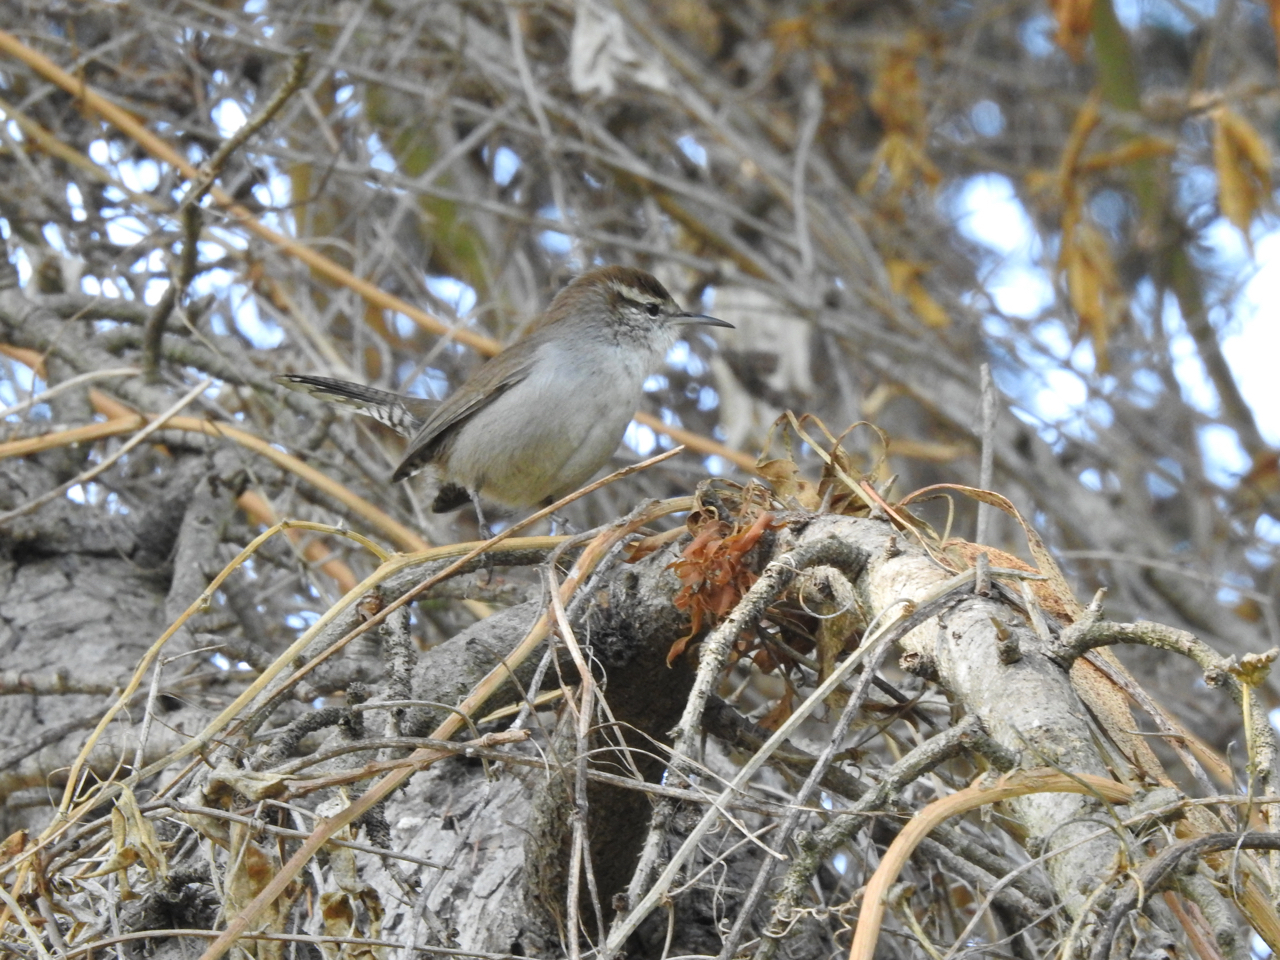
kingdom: Animalia
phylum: Chordata
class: Aves
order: Passeriformes
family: Troglodytidae
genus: Thryomanes
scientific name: Thryomanes bewickii
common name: Bewick's wren
